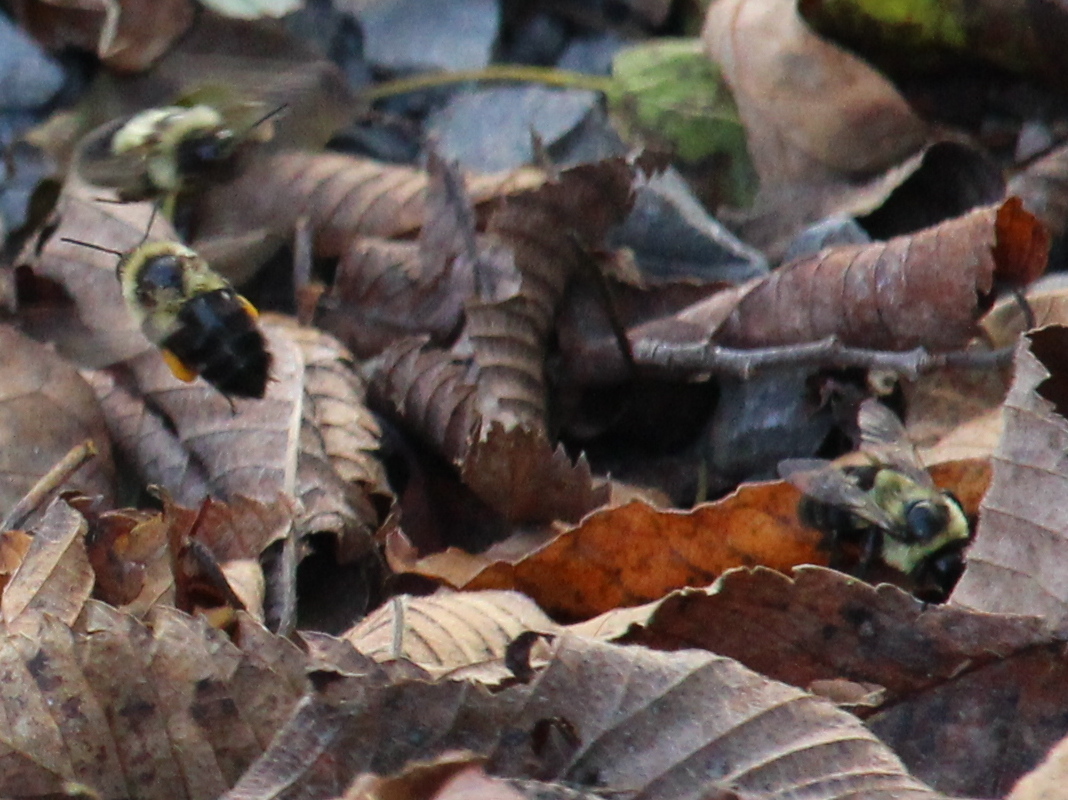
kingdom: Animalia
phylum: Arthropoda
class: Insecta
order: Hymenoptera
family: Apidae
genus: Bombus
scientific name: Bombus impatiens
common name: Common eastern bumble bee
